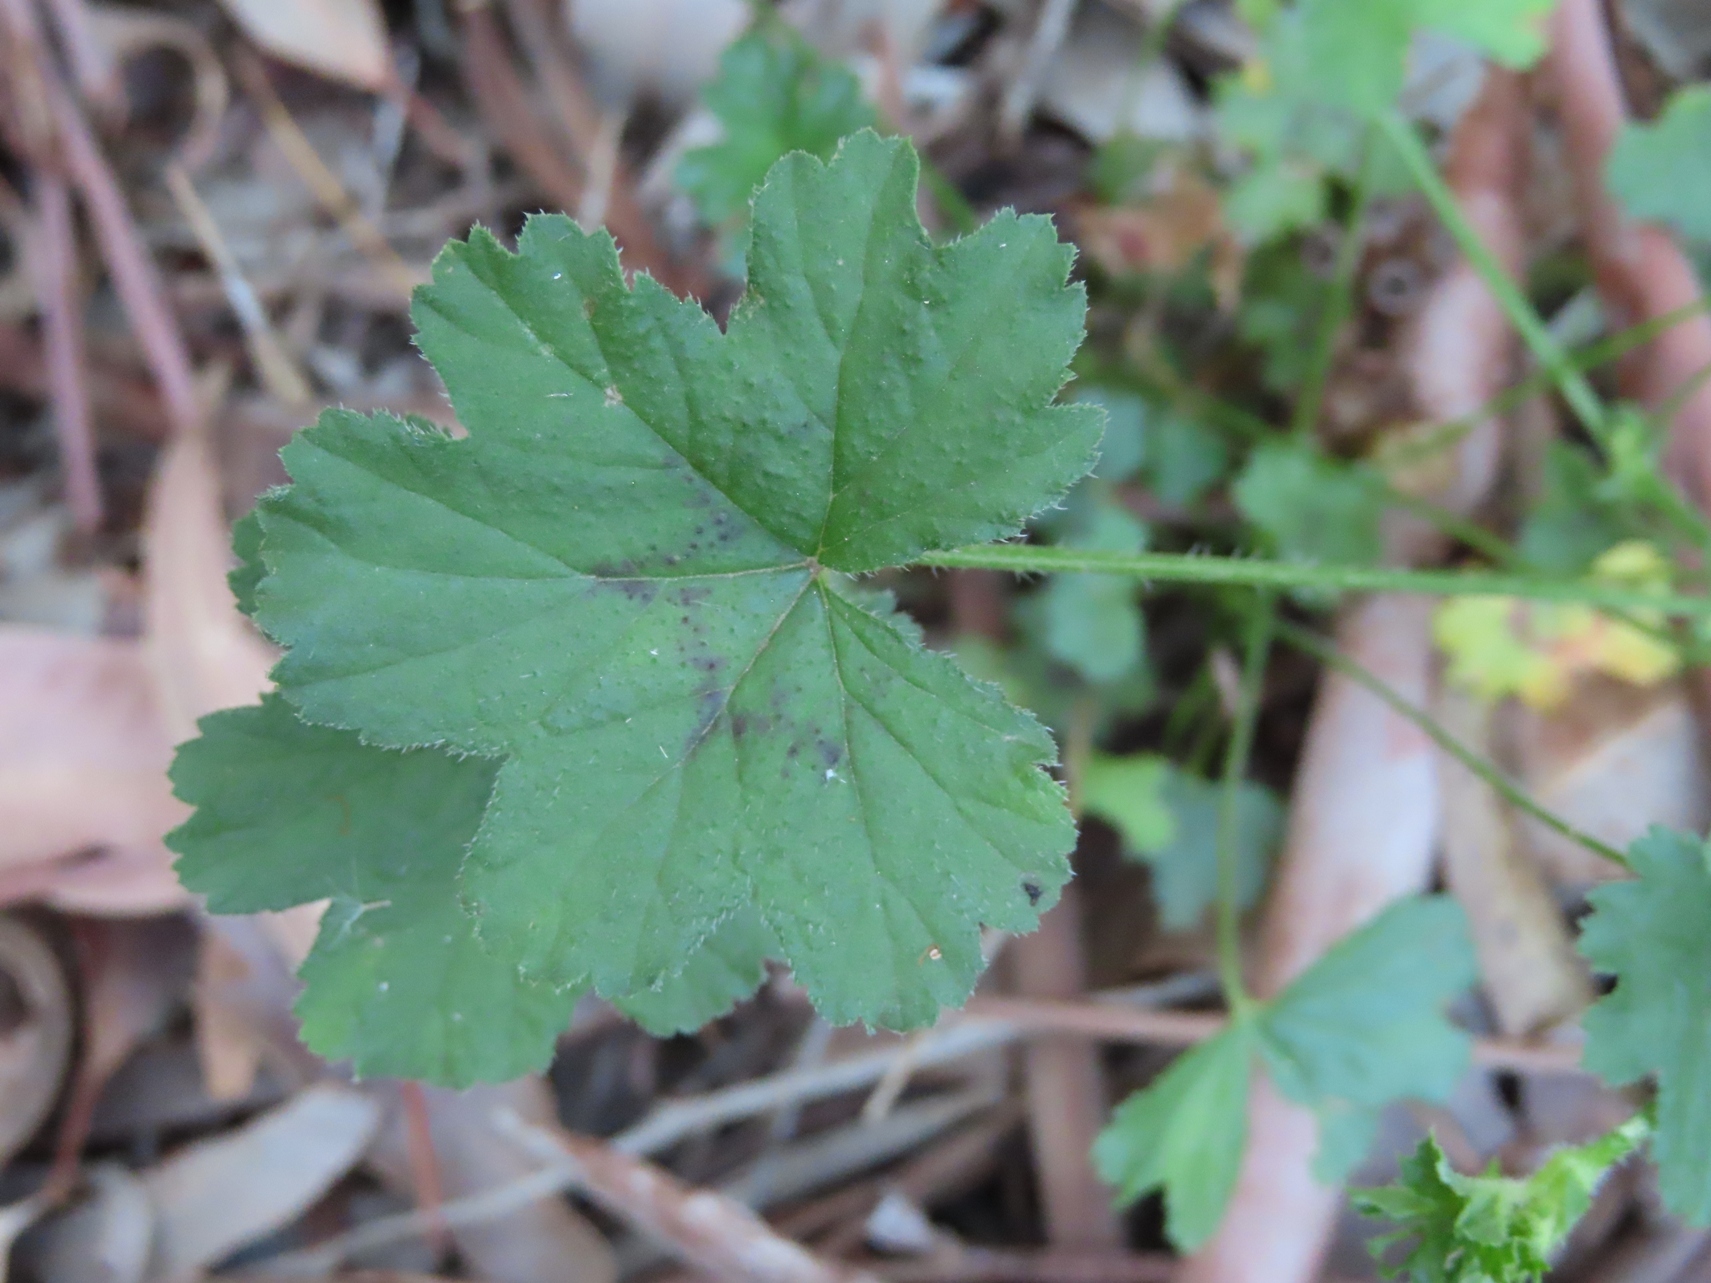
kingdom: Plantae
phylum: Tracheophyta
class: Magnoliopsida
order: Geraniales
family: Geraniaceae
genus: Pelargonium
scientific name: Pelargonium elongatum
